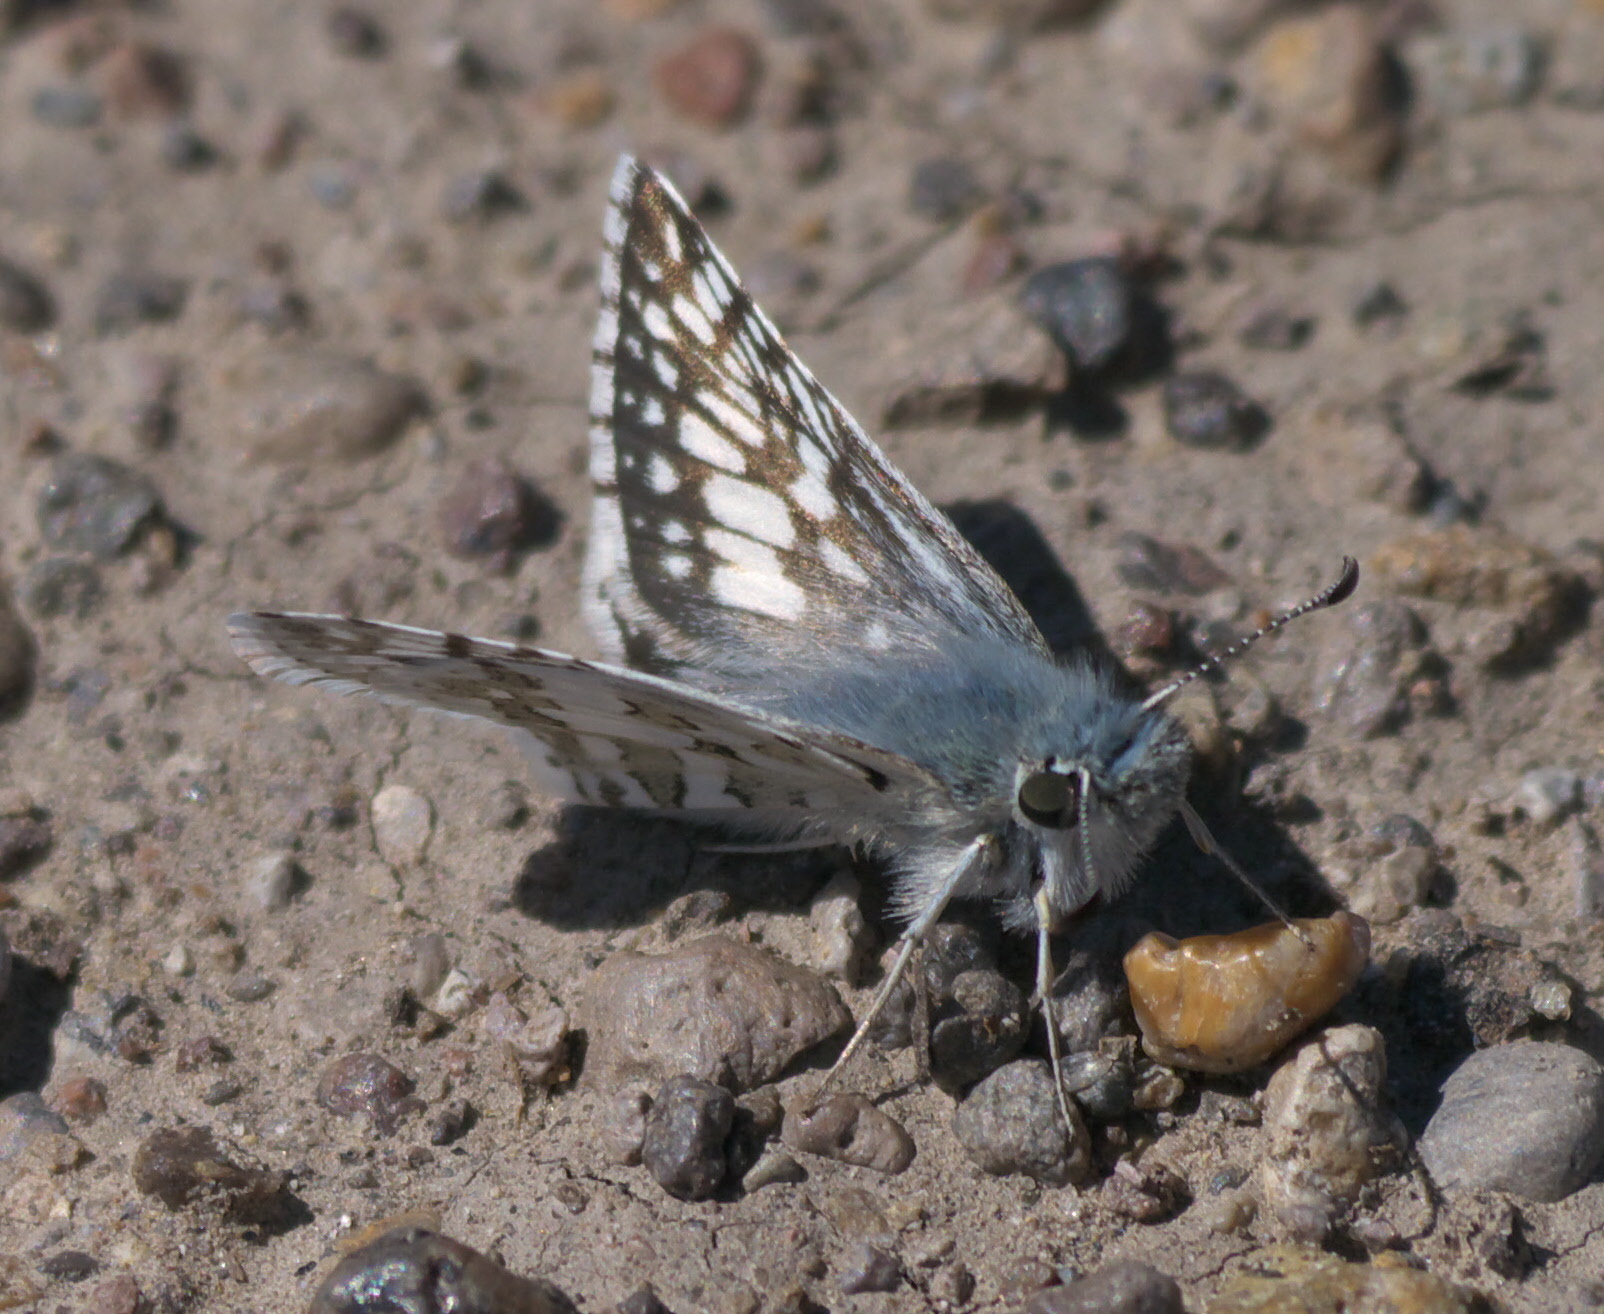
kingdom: Animalia
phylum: Arthropoda
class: Insecta
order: Lepidoptera
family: Hesperiidae
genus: Burnsius
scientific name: Burnsius communis
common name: Common checkered-skipper
